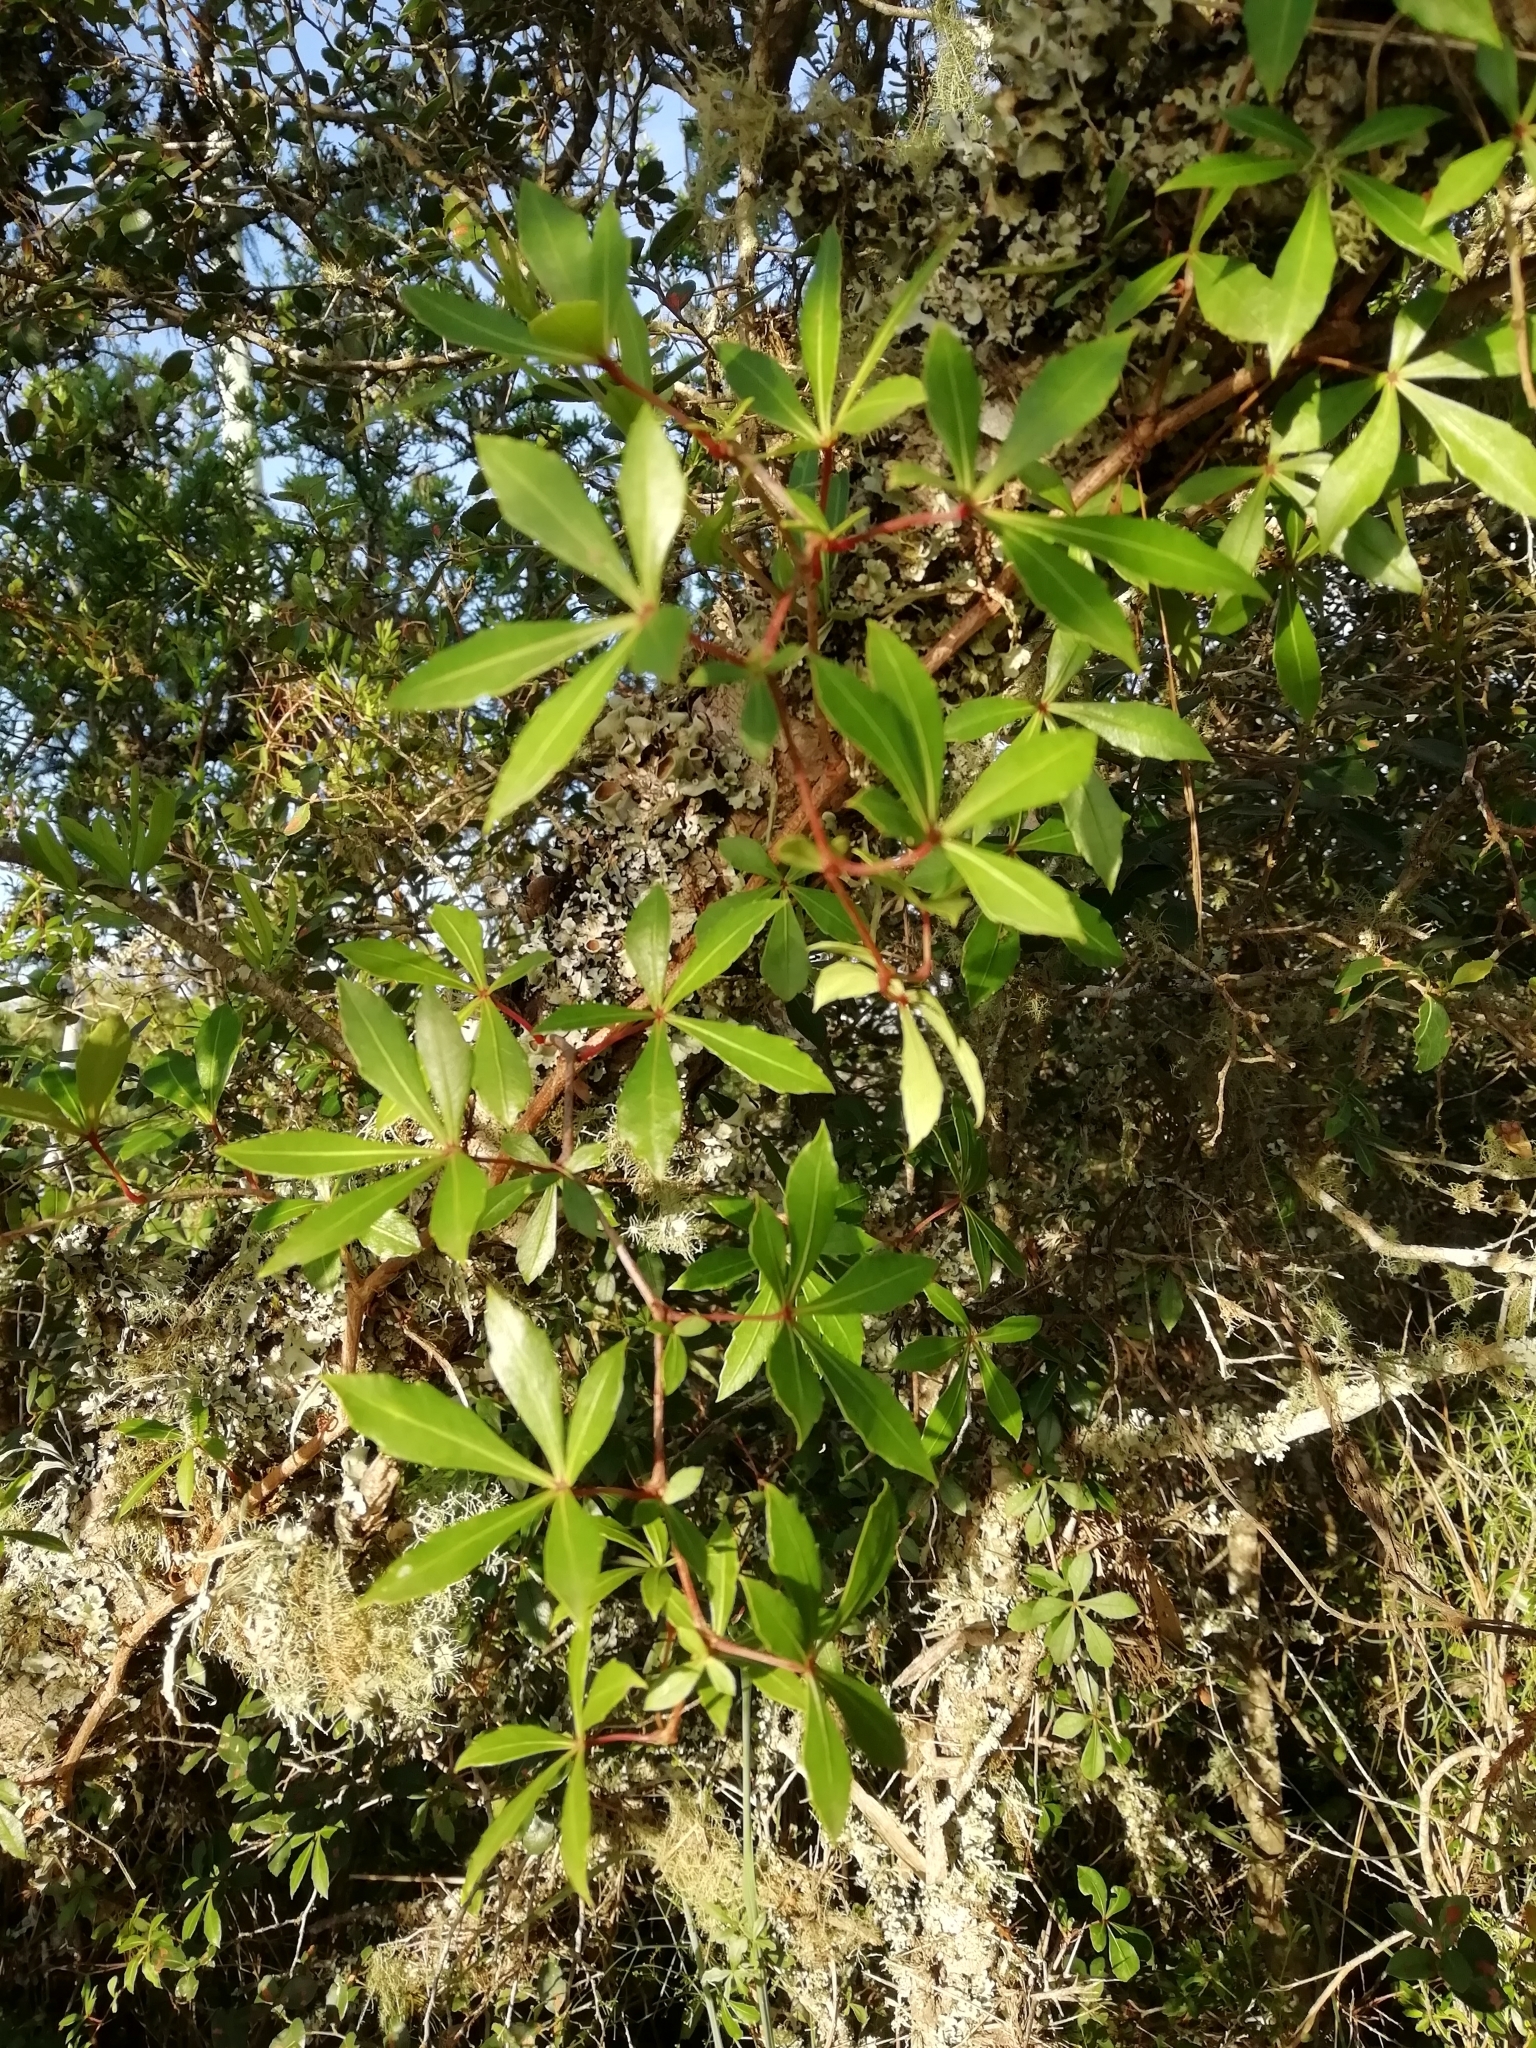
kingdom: Plantae
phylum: Tracheophyta
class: Magnoliopsida
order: Vitales
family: Vitaceae
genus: Clematicissus
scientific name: Clematicissus striata
